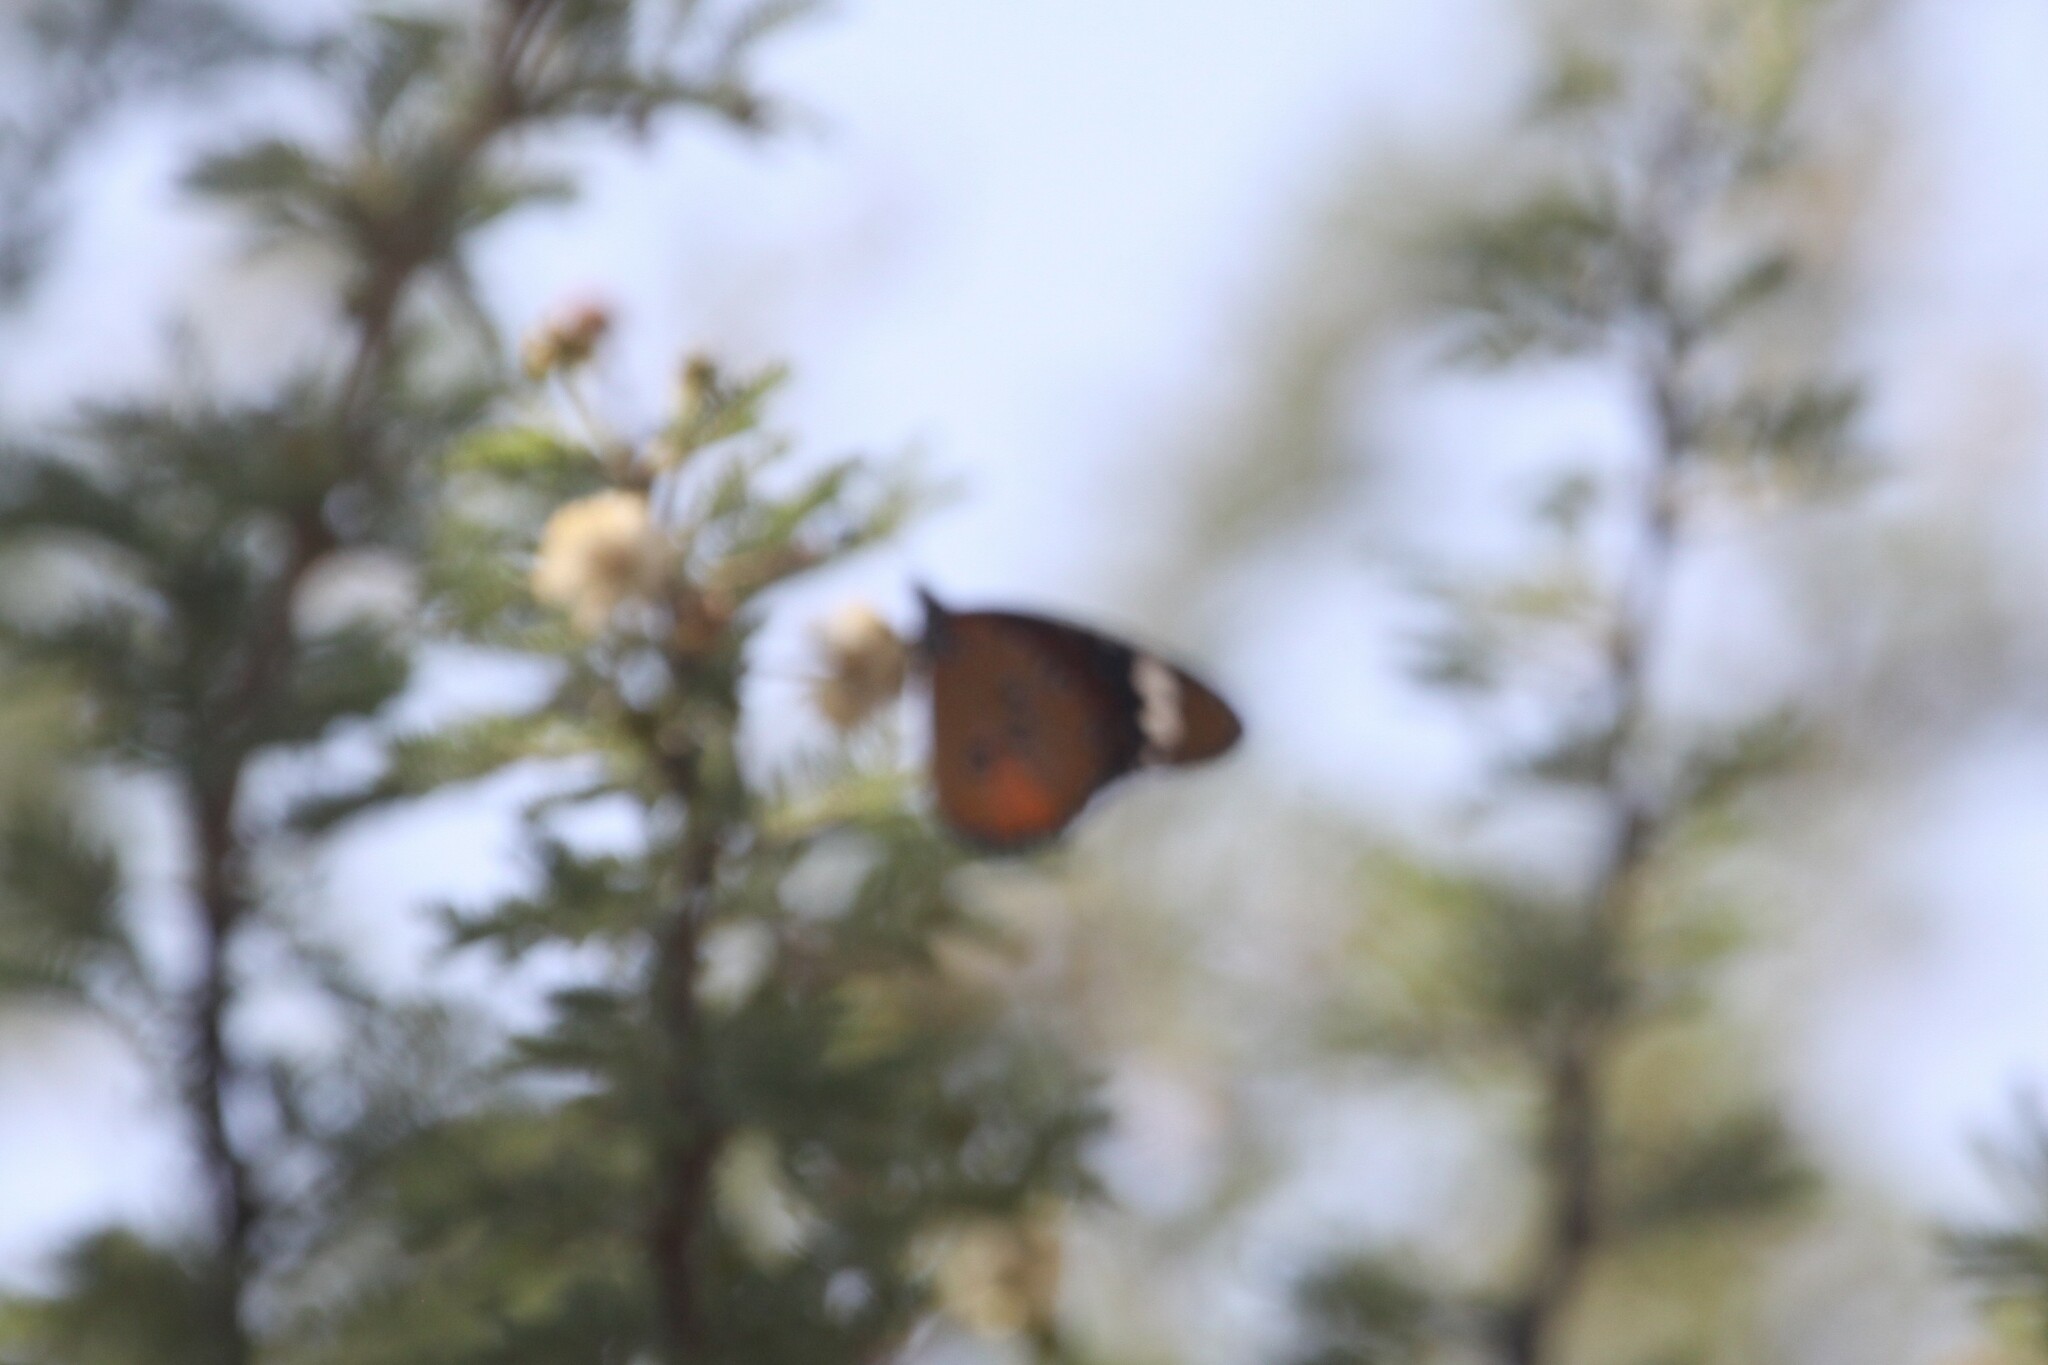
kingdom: Animalia
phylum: Arthropoda
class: Insecta
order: Lepidoptera
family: Nymphalidae
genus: Danaus
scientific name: Danaus chrysippus
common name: Plain tiger
